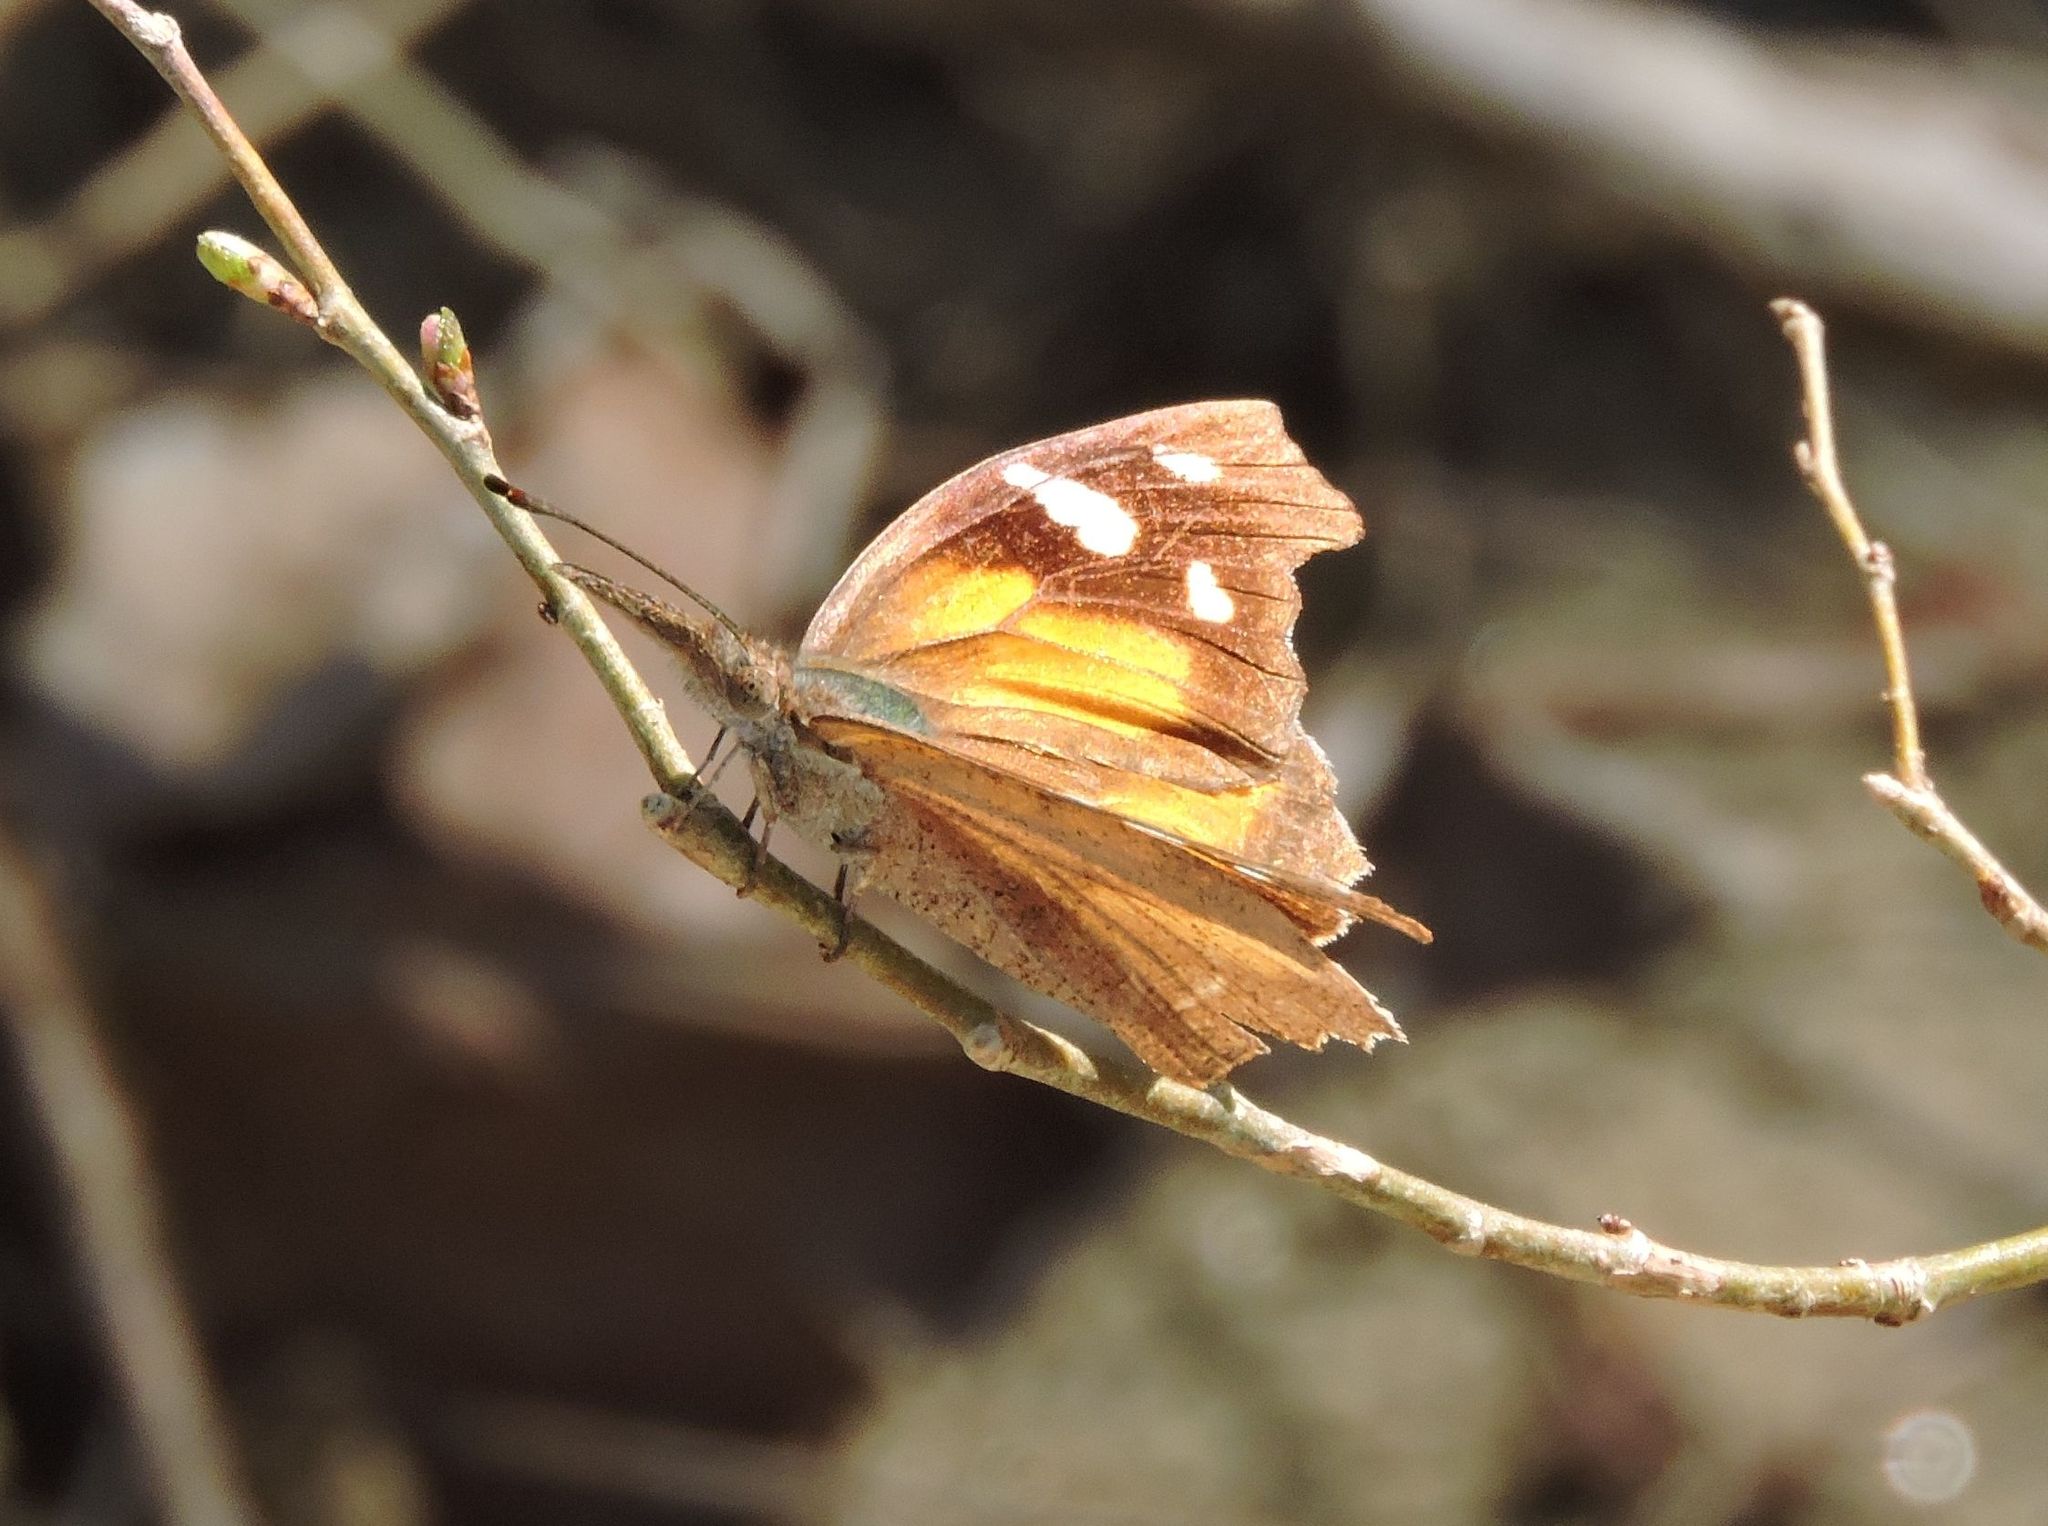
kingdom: Animalia
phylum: Arthropoda
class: Insecta
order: Lepidoptera
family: Nymphalidae
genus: Libytheana
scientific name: Libytheana carinenta
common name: American snout
